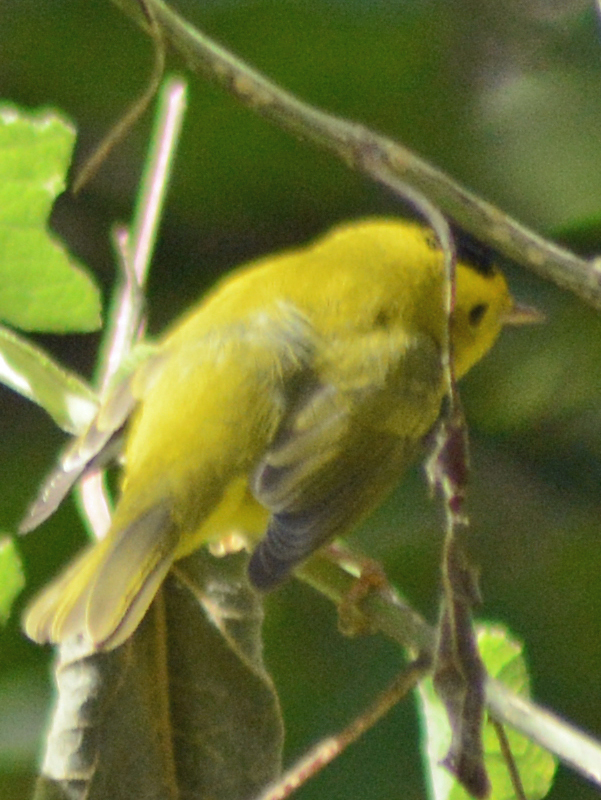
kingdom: Animalia
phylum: Chordata
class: Aves
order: Passeriformes
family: Parulidae
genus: Cardellina
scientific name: Cardellina pusilla
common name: Wilson's warbler
